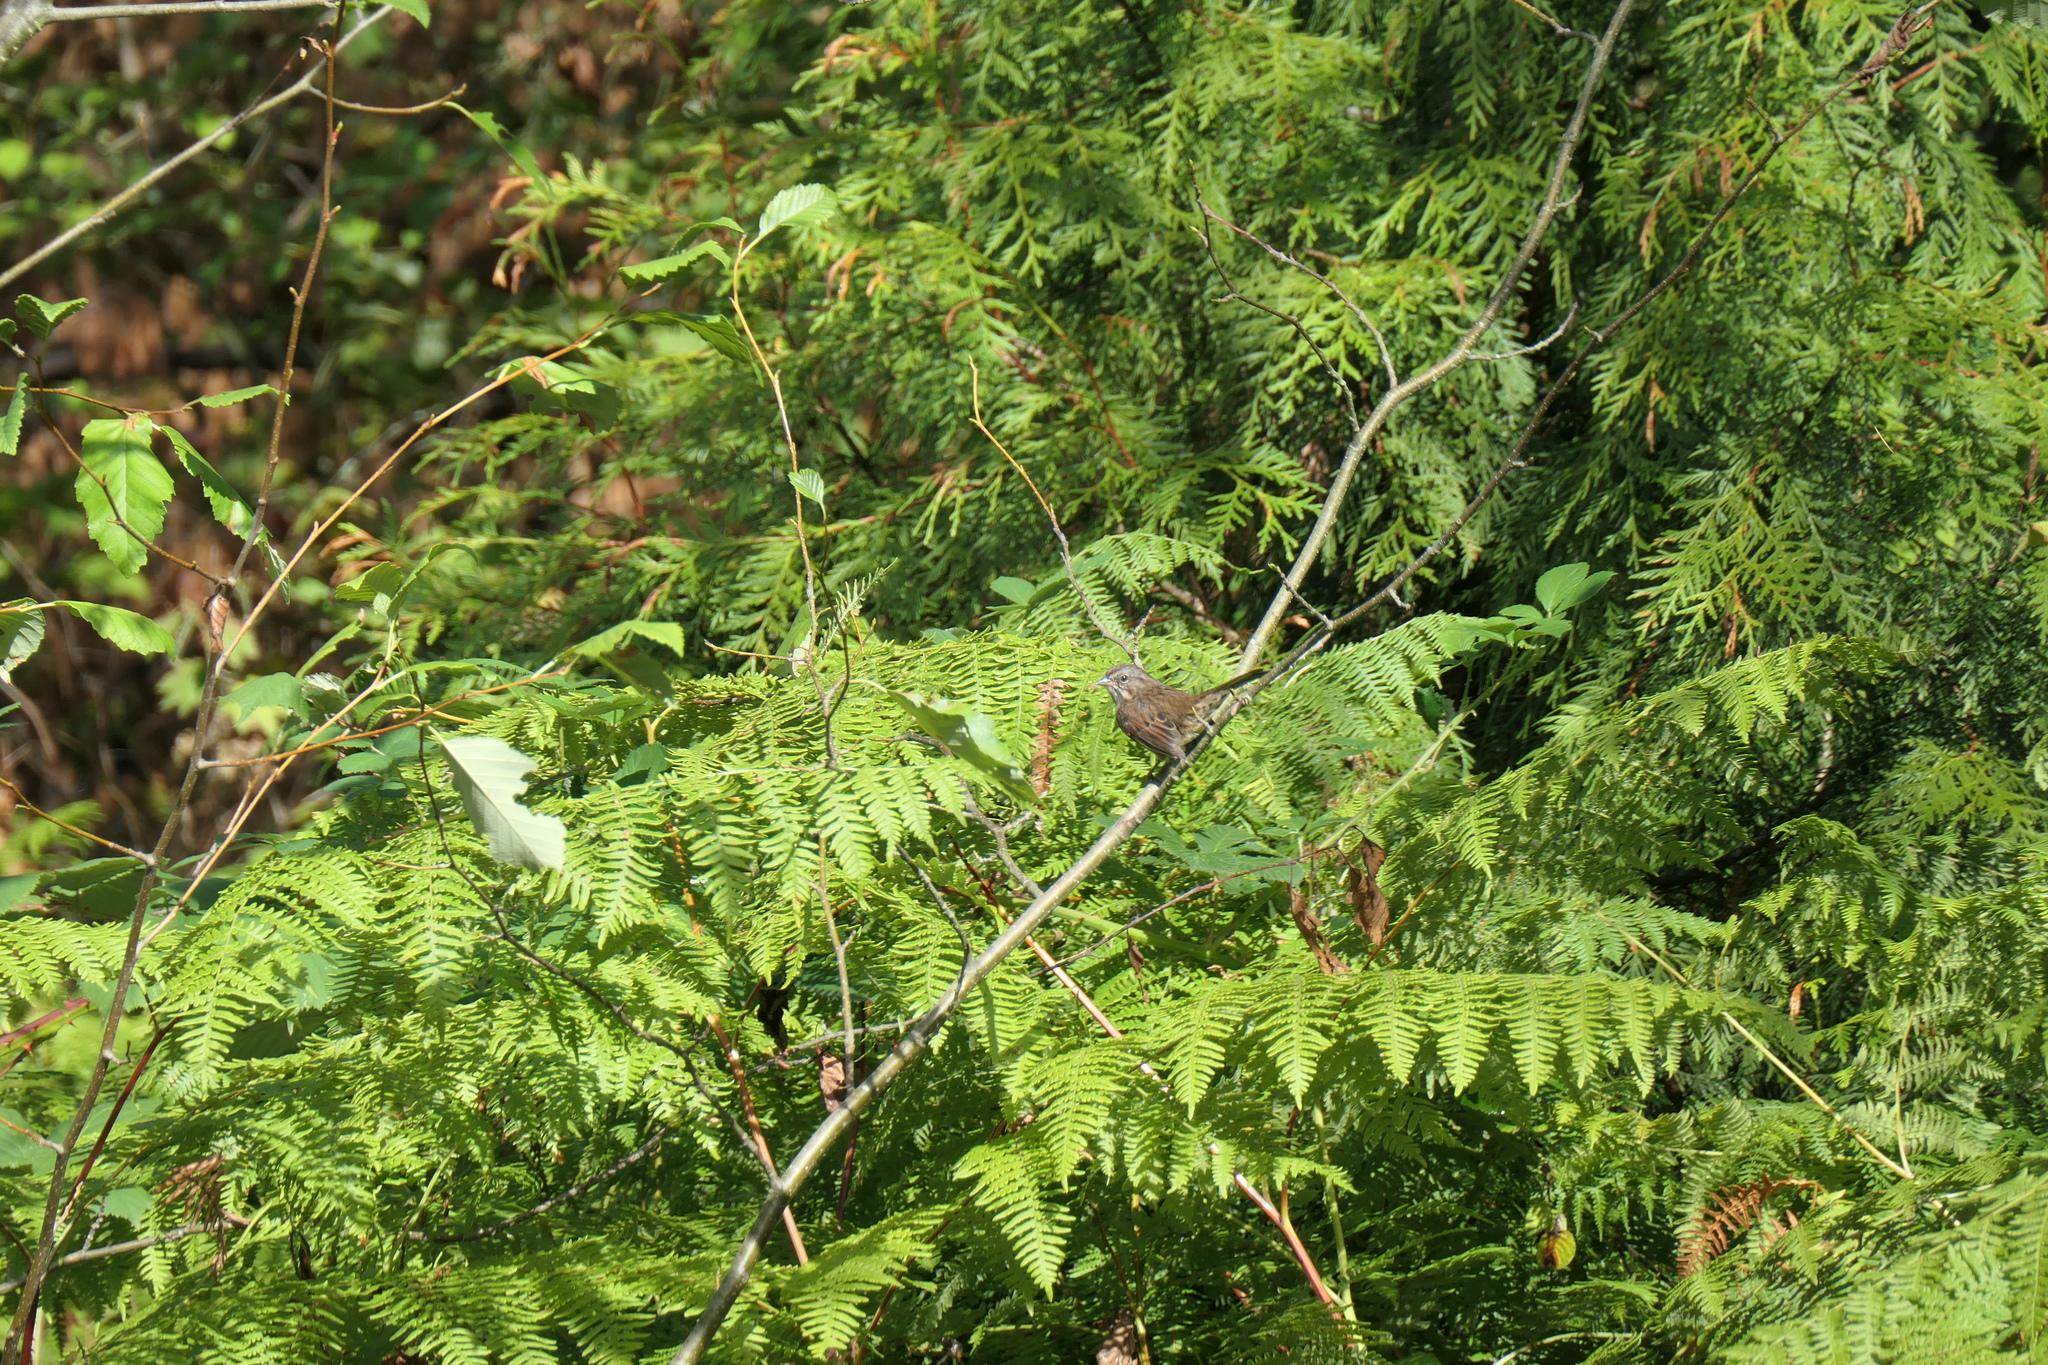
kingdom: Animalia
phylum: Chordata
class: Aves
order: Passeriformes
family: Passerellidae
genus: Melospiza
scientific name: Melospiza melodia
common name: Song sparrow
